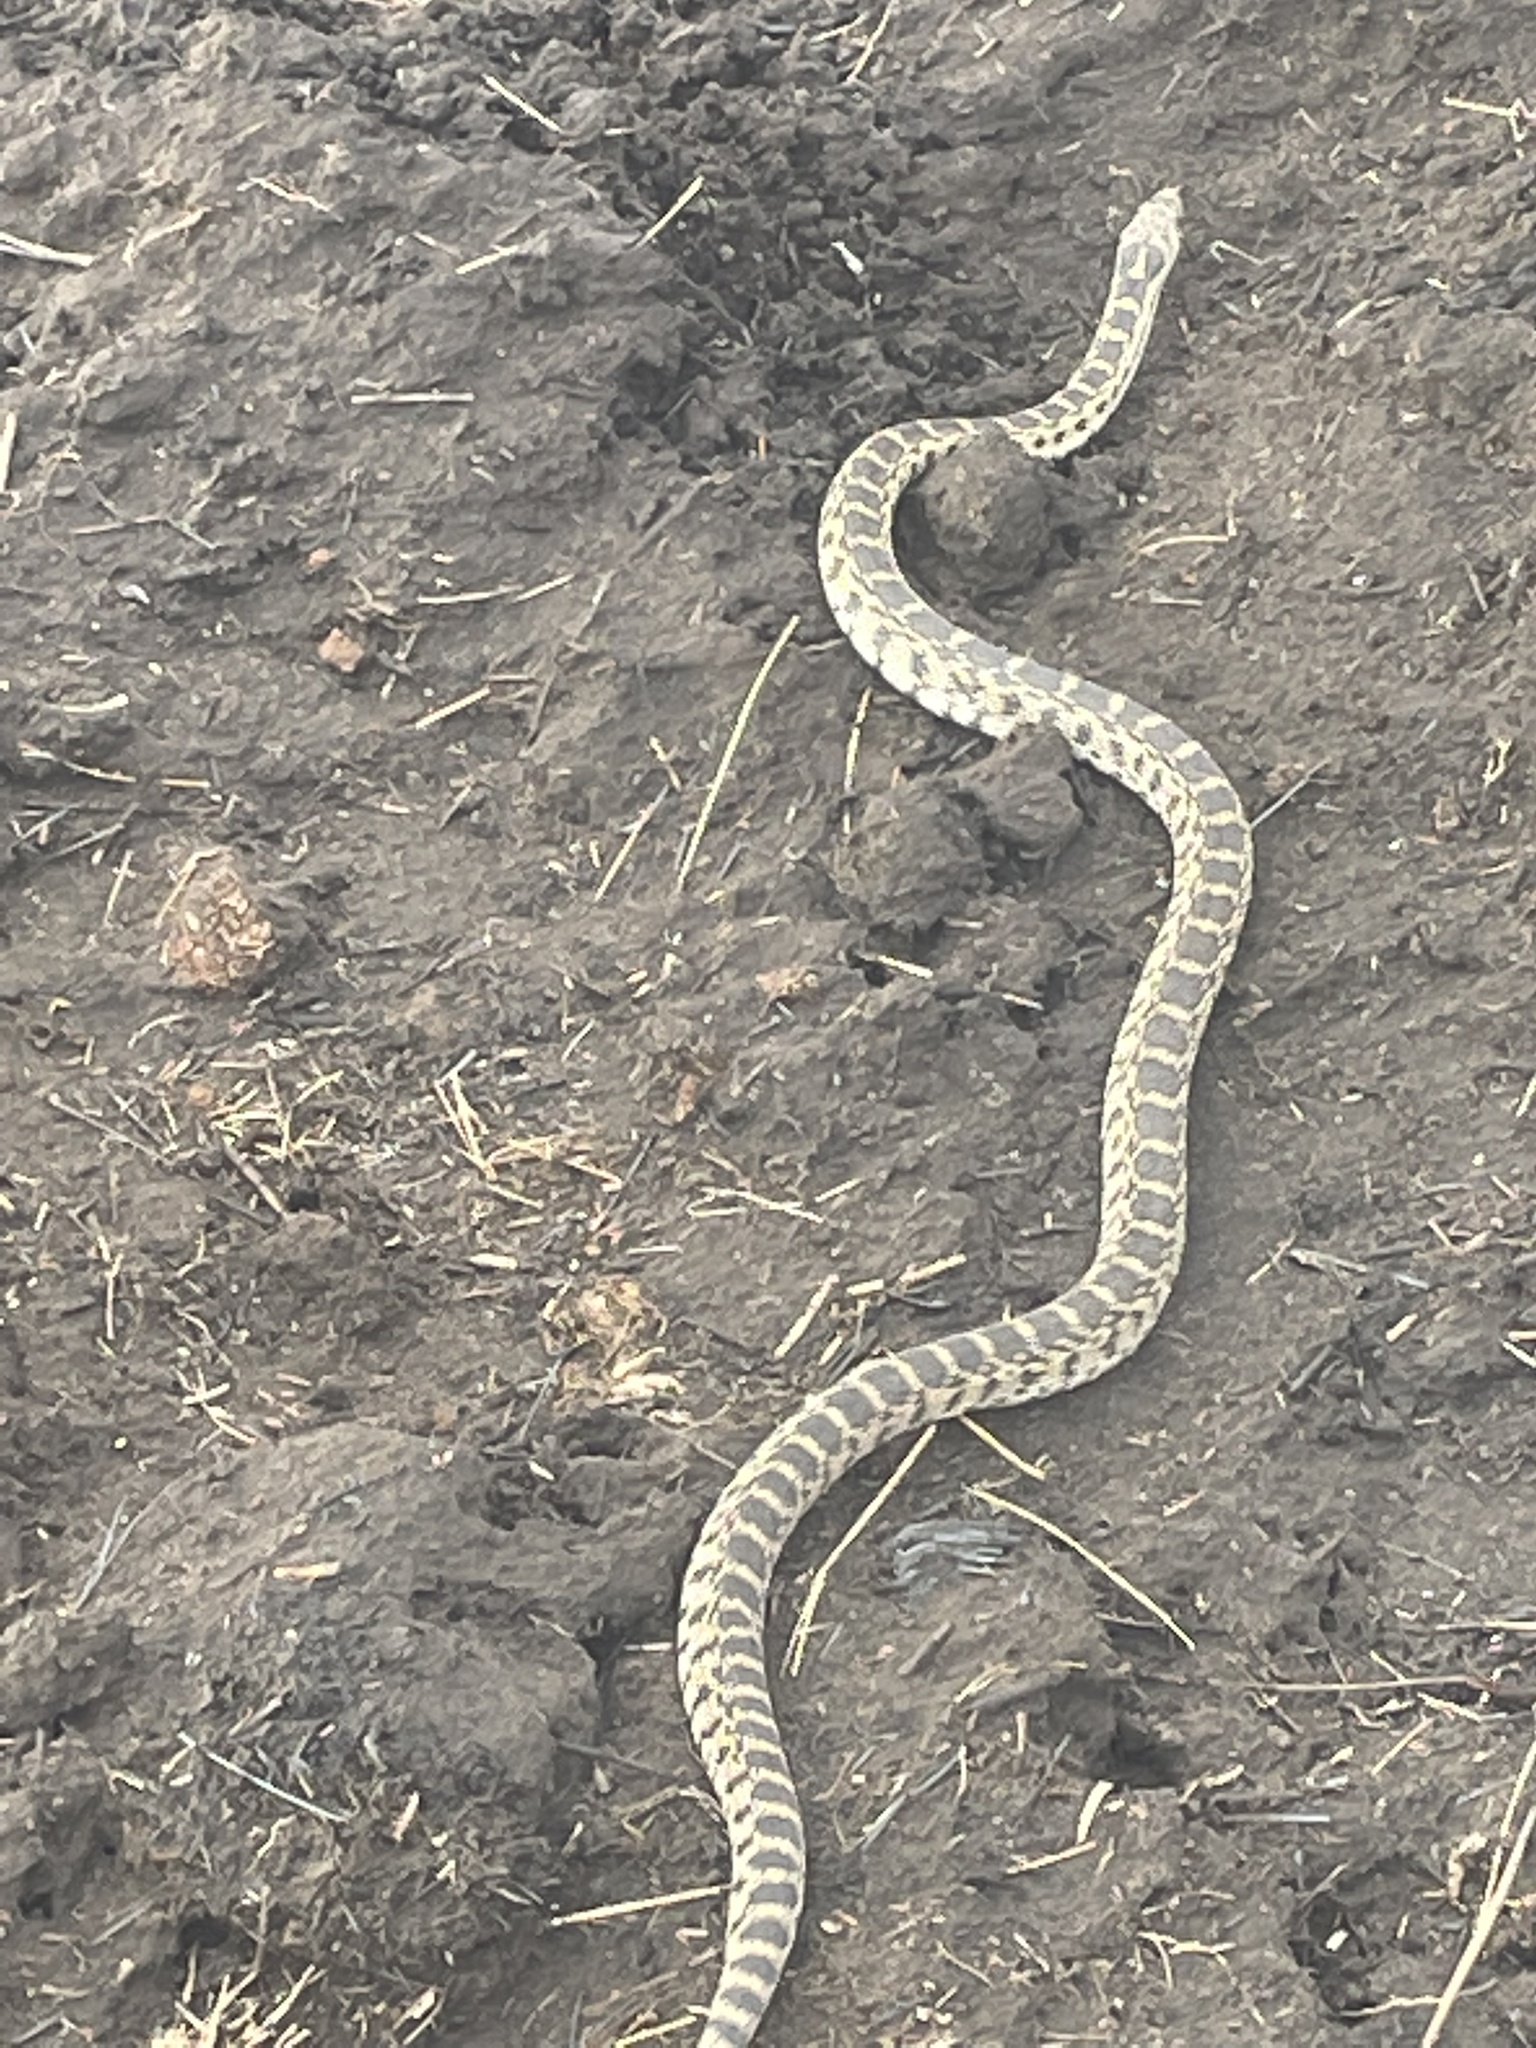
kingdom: Animalia
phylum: Chordata
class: Squamata
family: Colubridae
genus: Pituophis
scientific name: Pituophis catenifer
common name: Gopher snake
